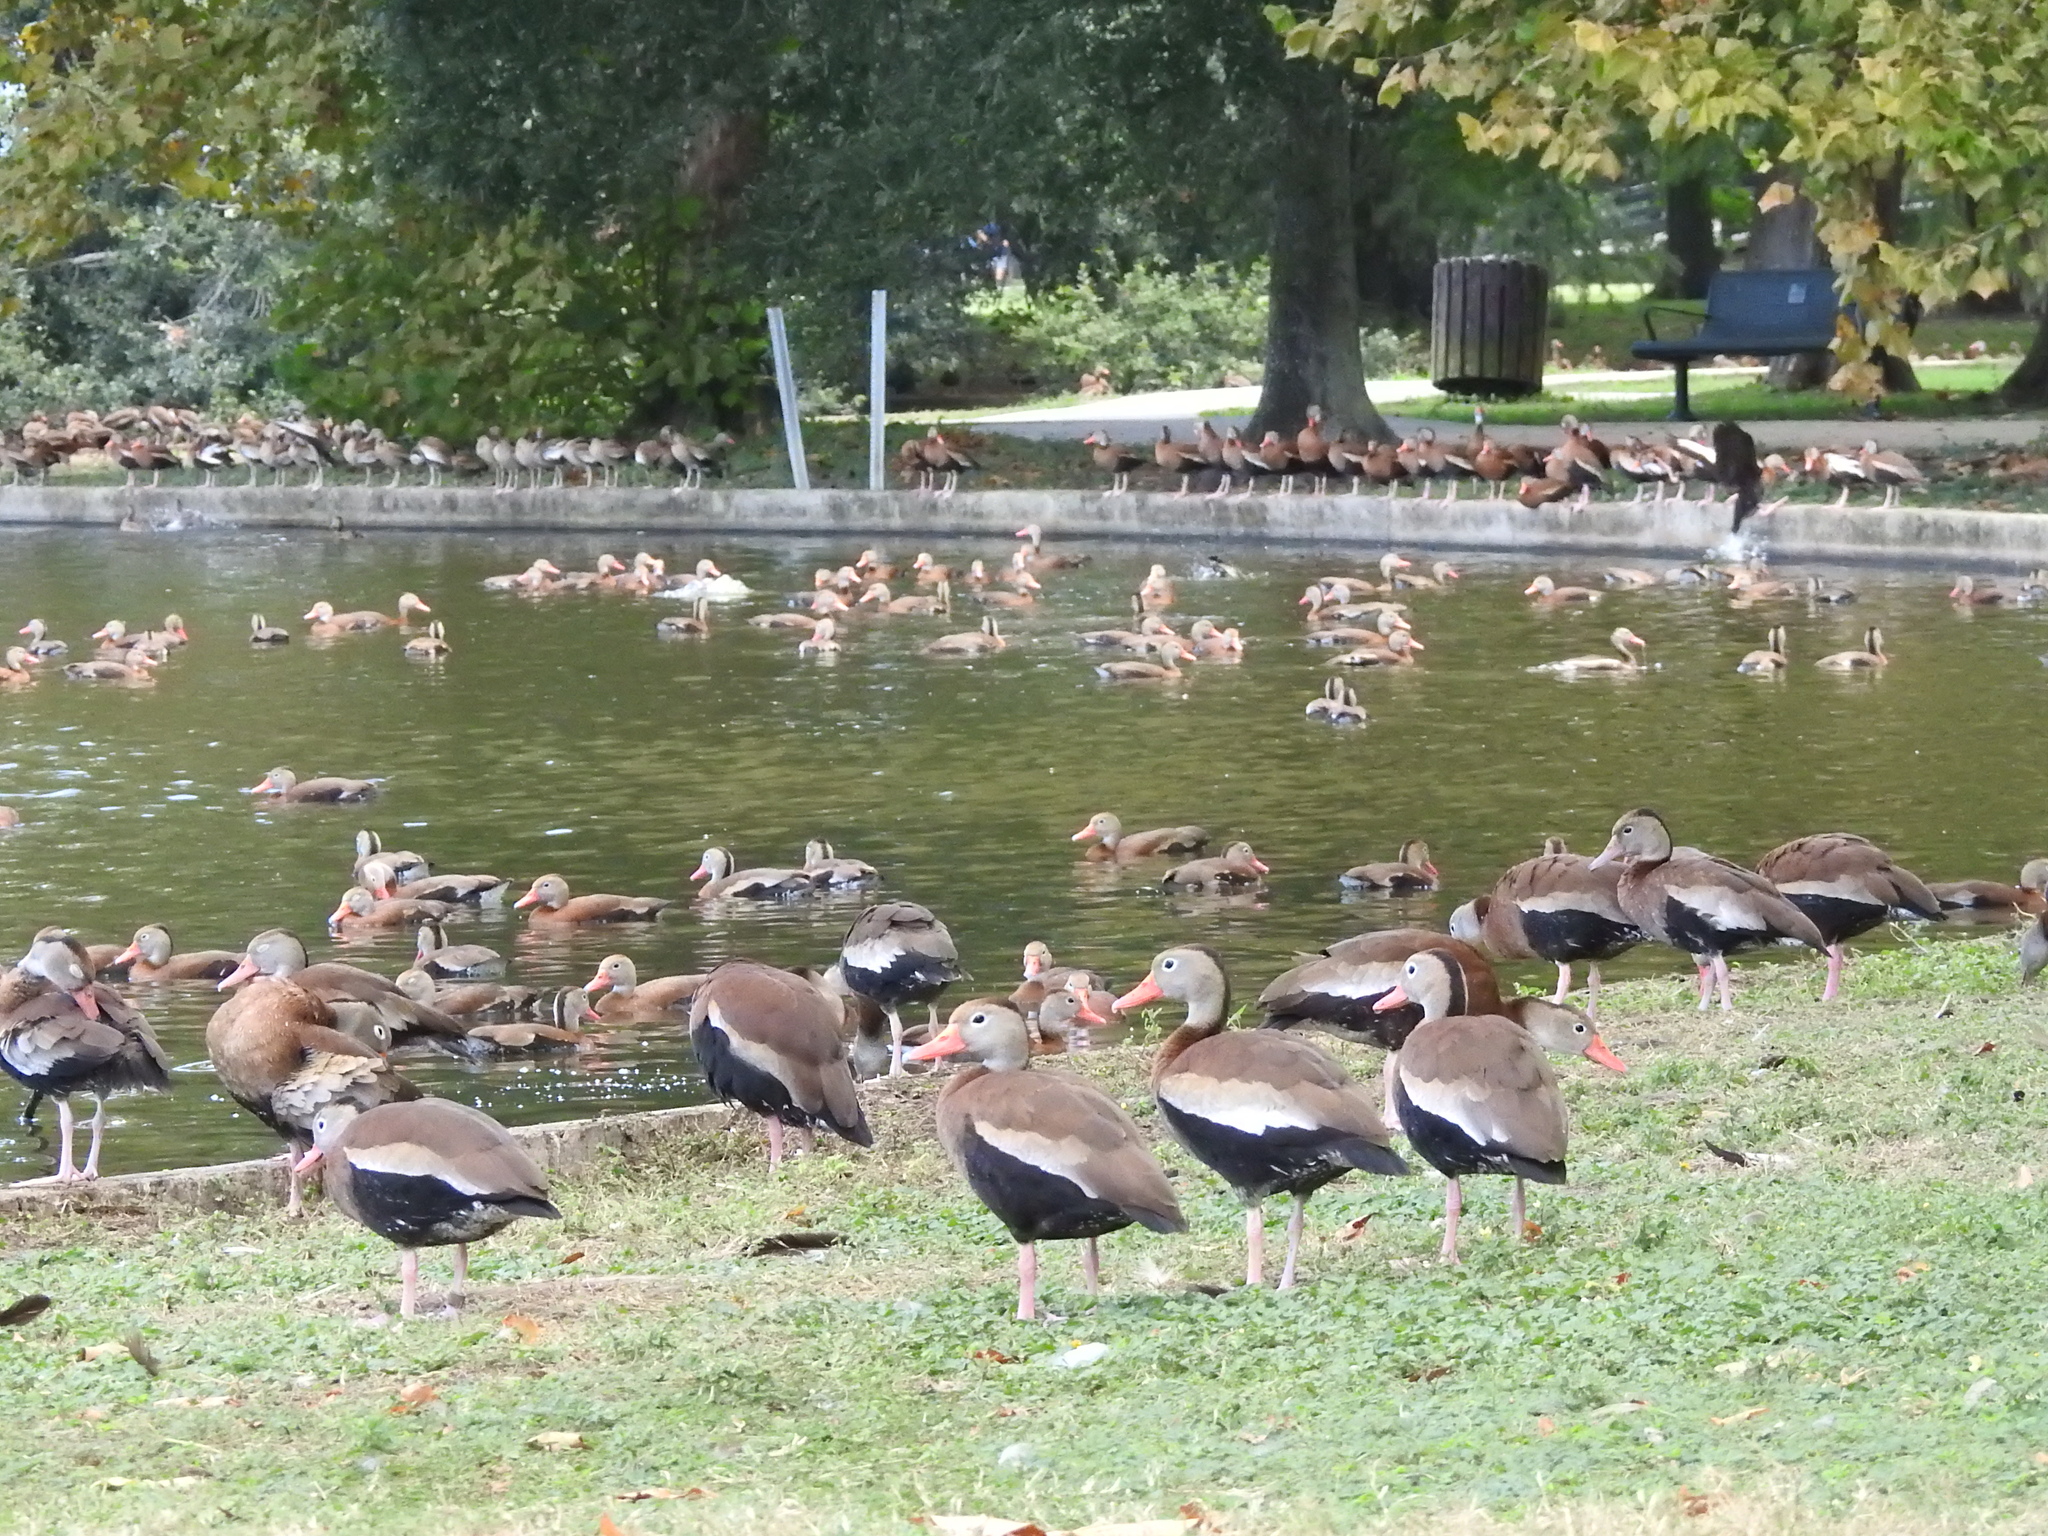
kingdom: Animalia
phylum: Chordata
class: Aves
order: Anseriformes
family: Anatidae
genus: Dendrocygna
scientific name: Dendrocygna autumnalis
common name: Black-bellied whistling duck
